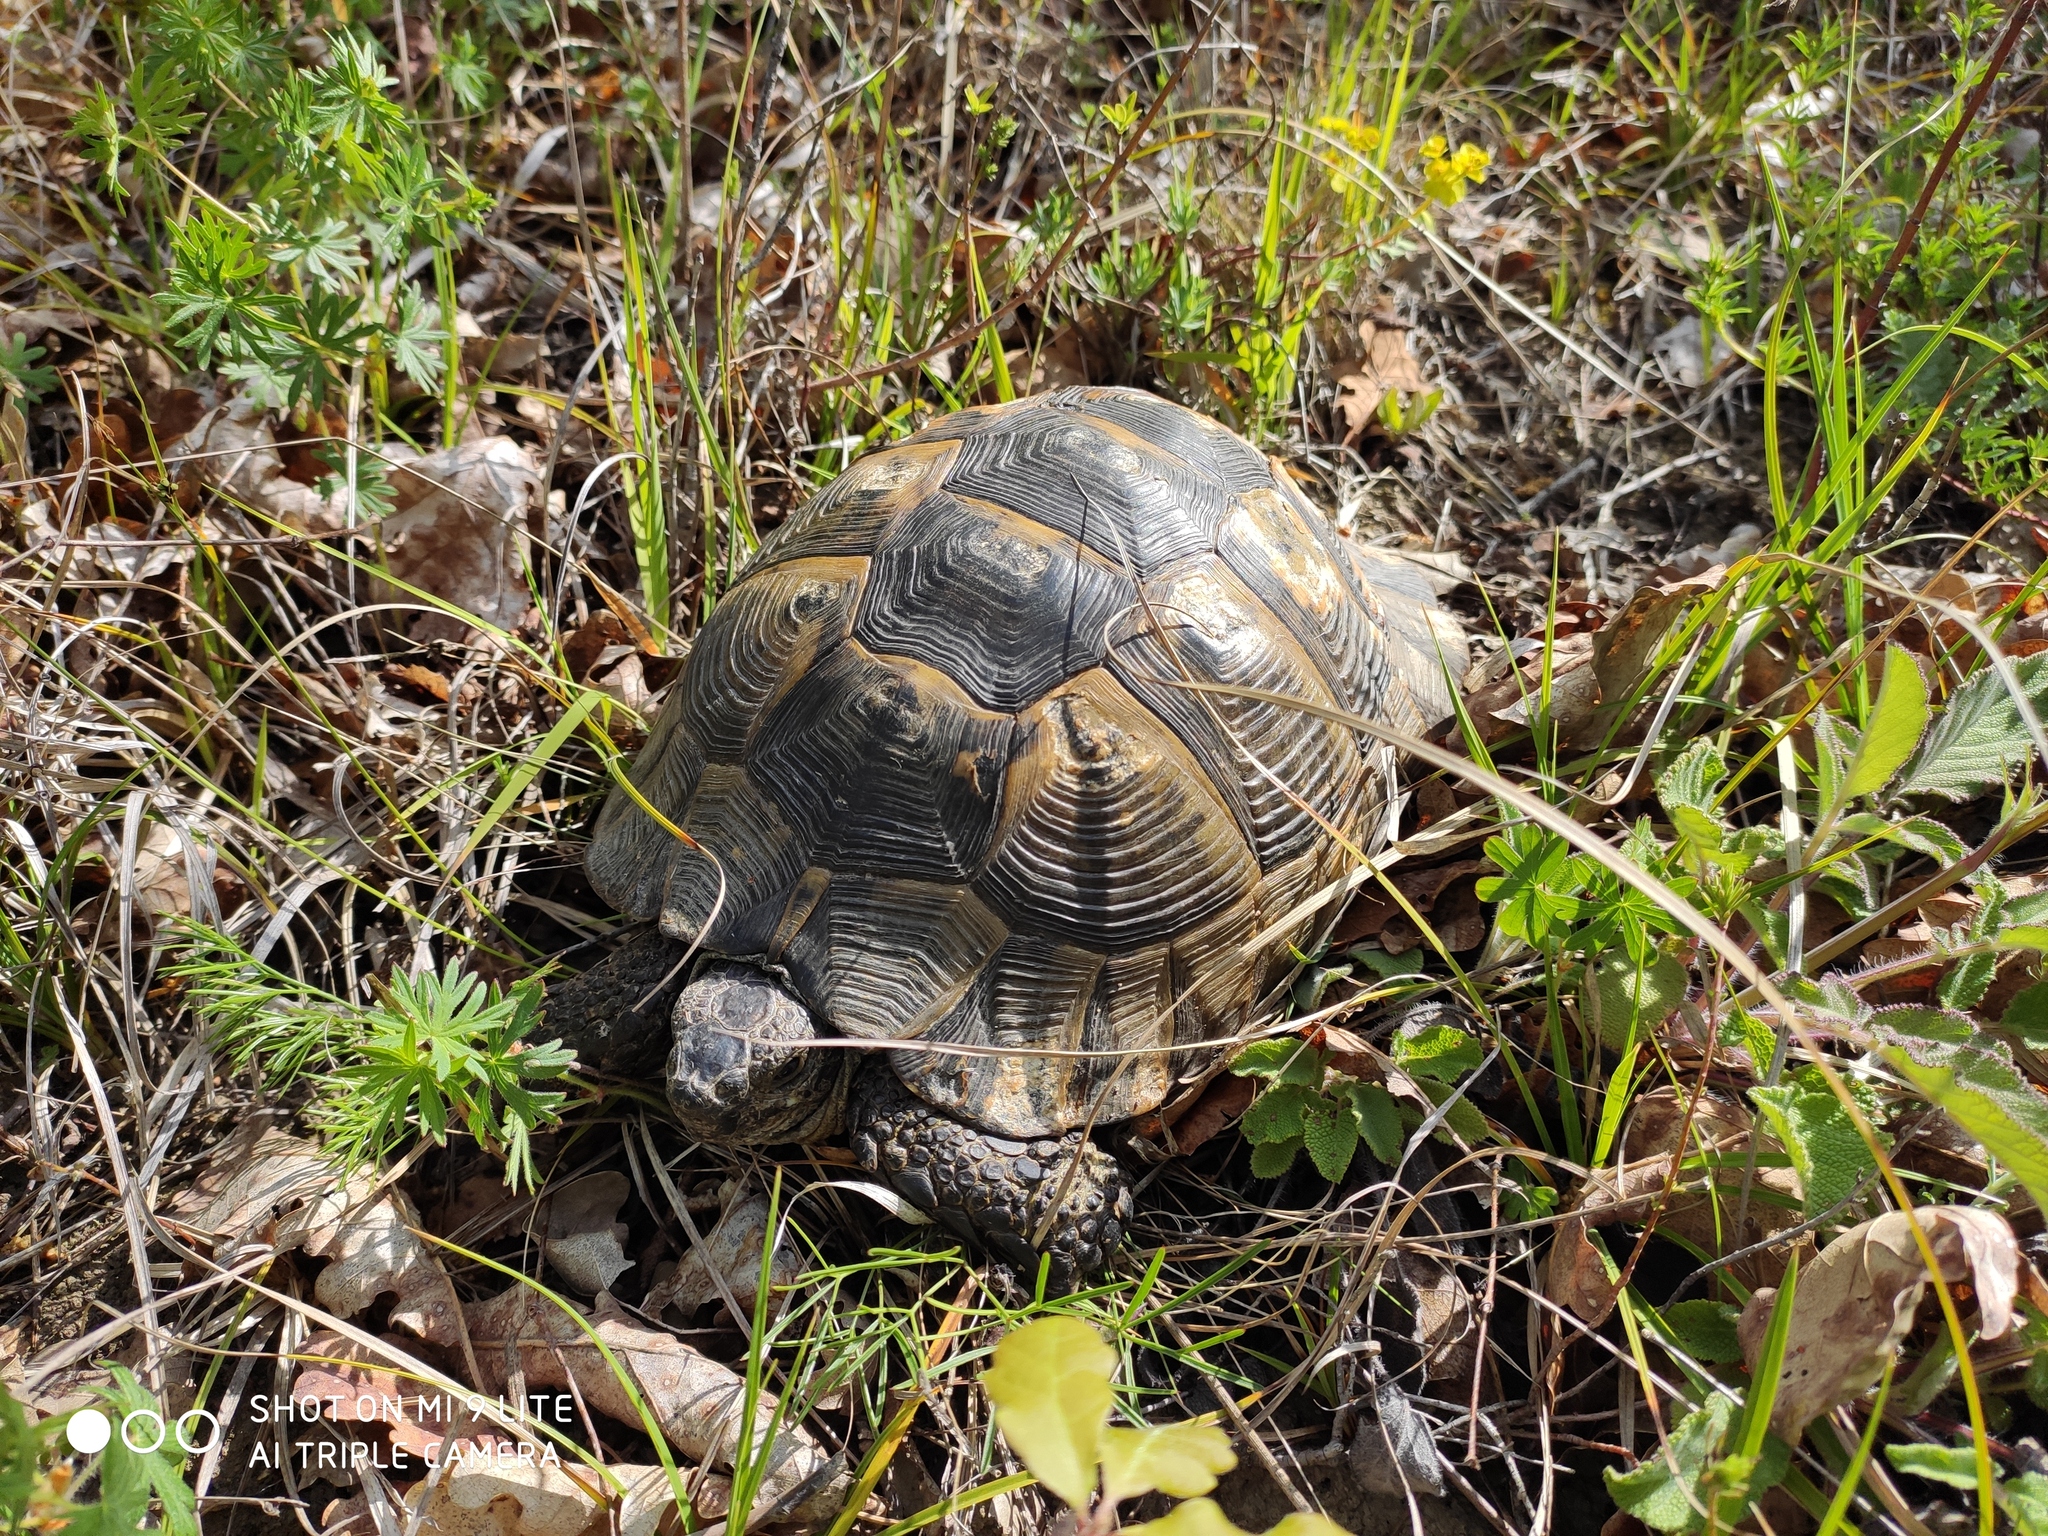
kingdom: Animalia
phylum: Chordata
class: Testudines
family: Testudinidae
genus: Testudo
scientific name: Testudo graeca
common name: Common tortoise
